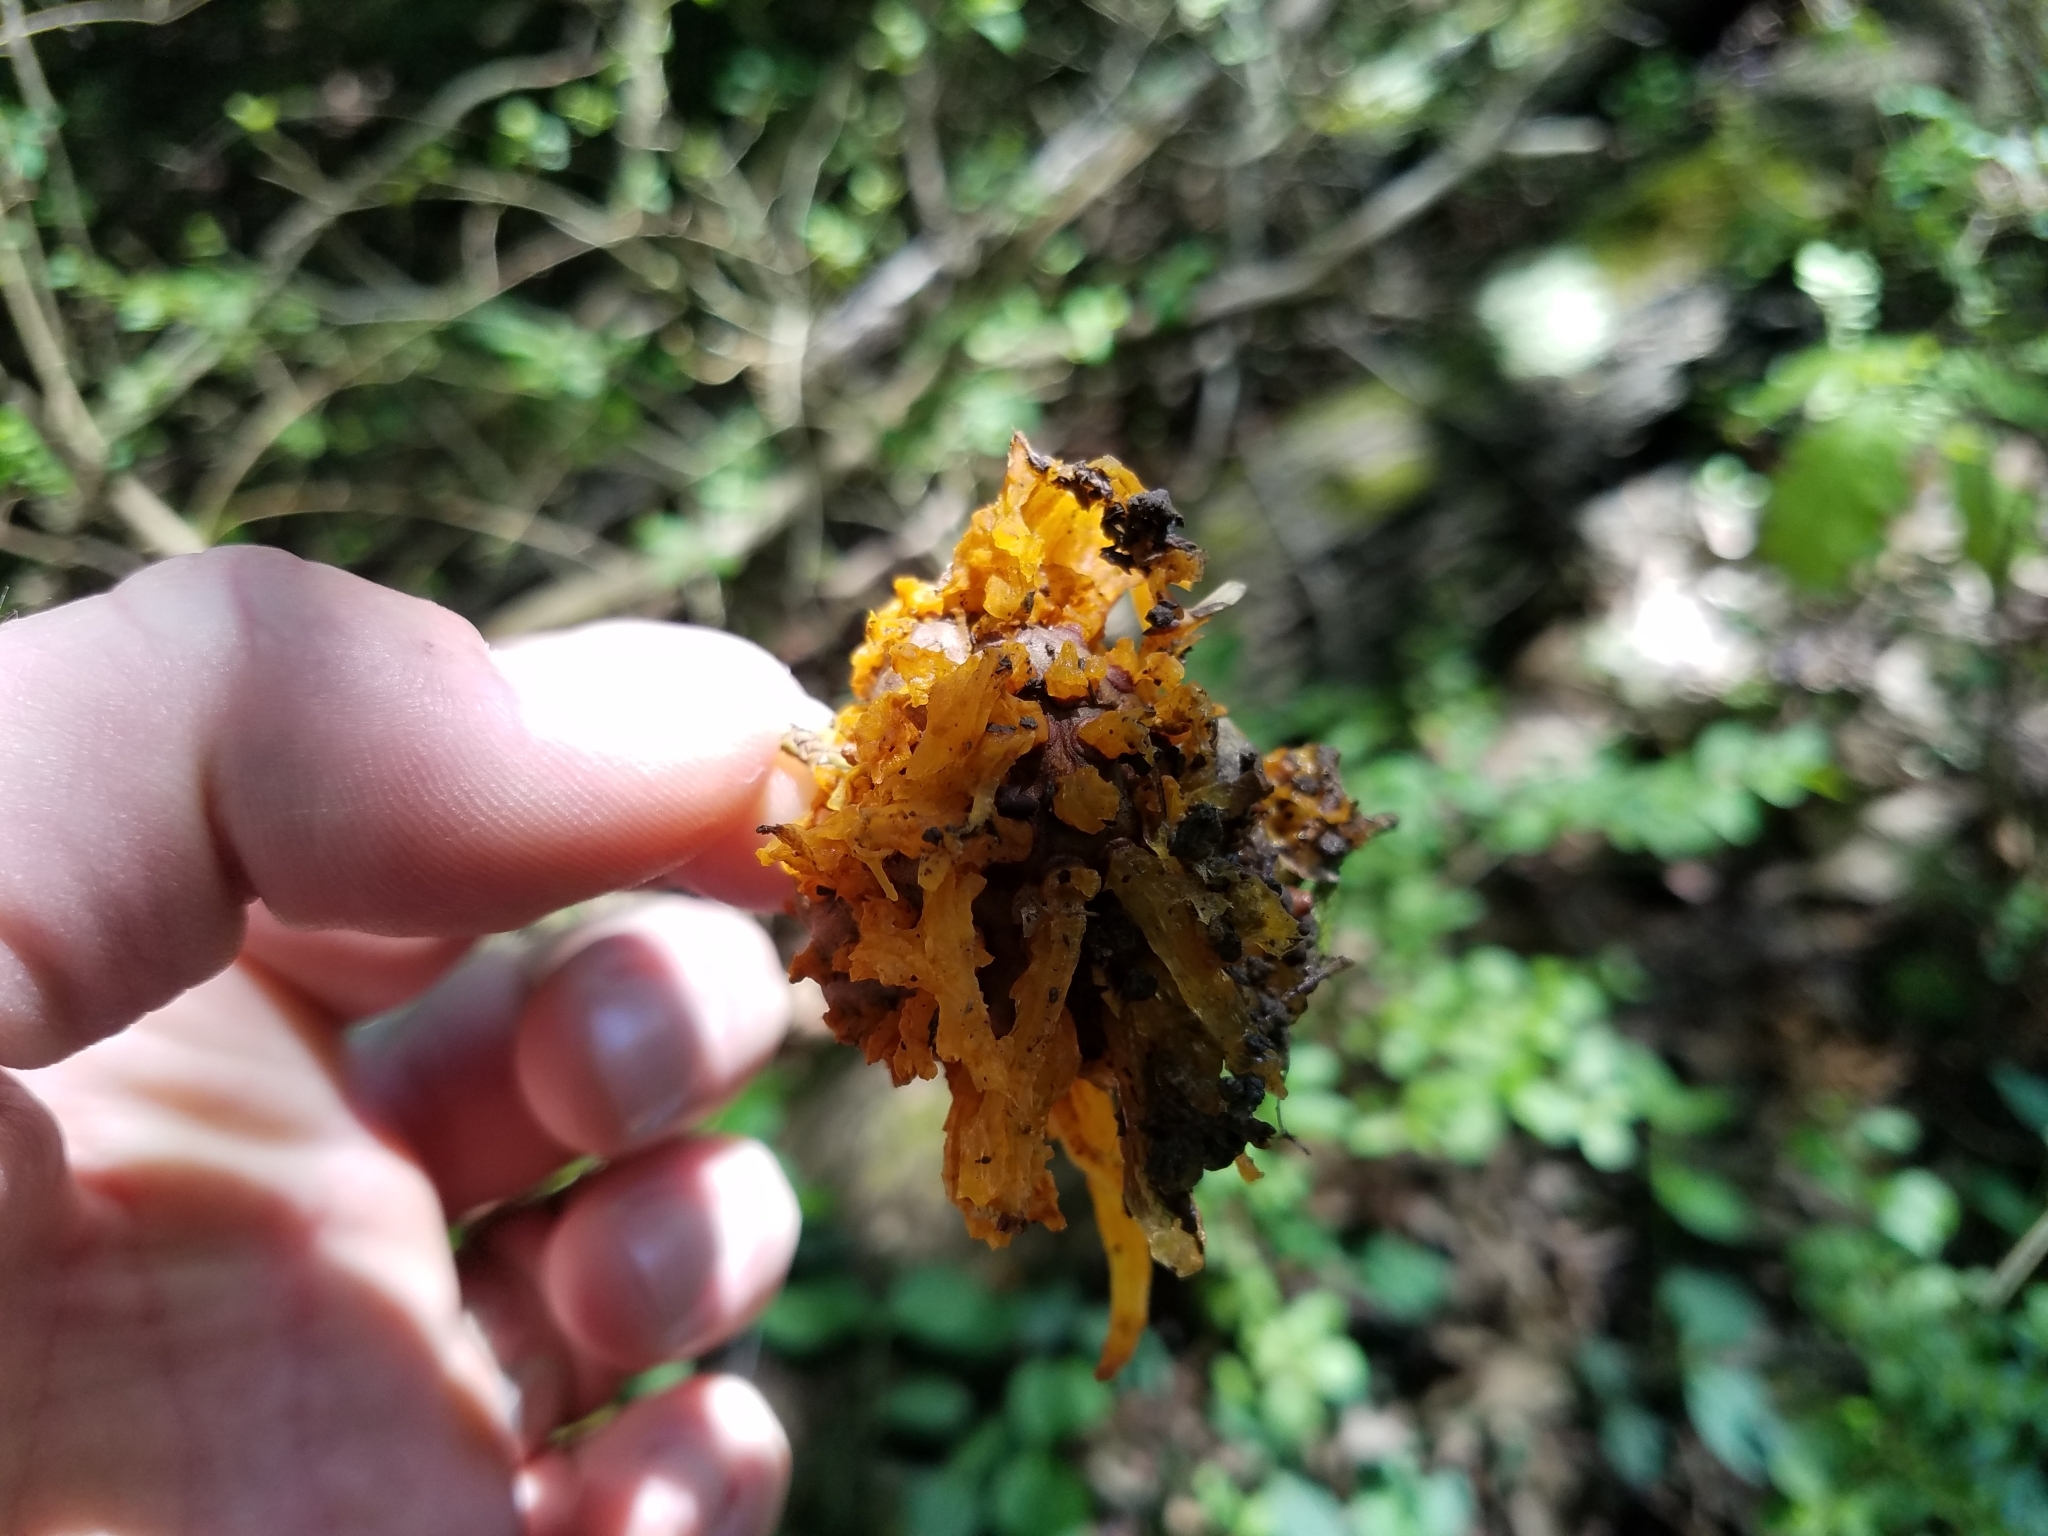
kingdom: Fungi
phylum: Basidiomycota
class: Pucciniomycetes
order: Pucciniales
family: Gymnosporangiaceae
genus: Gymnosporangium
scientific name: Gymnosporangium juniperi-virginianae
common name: Juniper-apple rust
